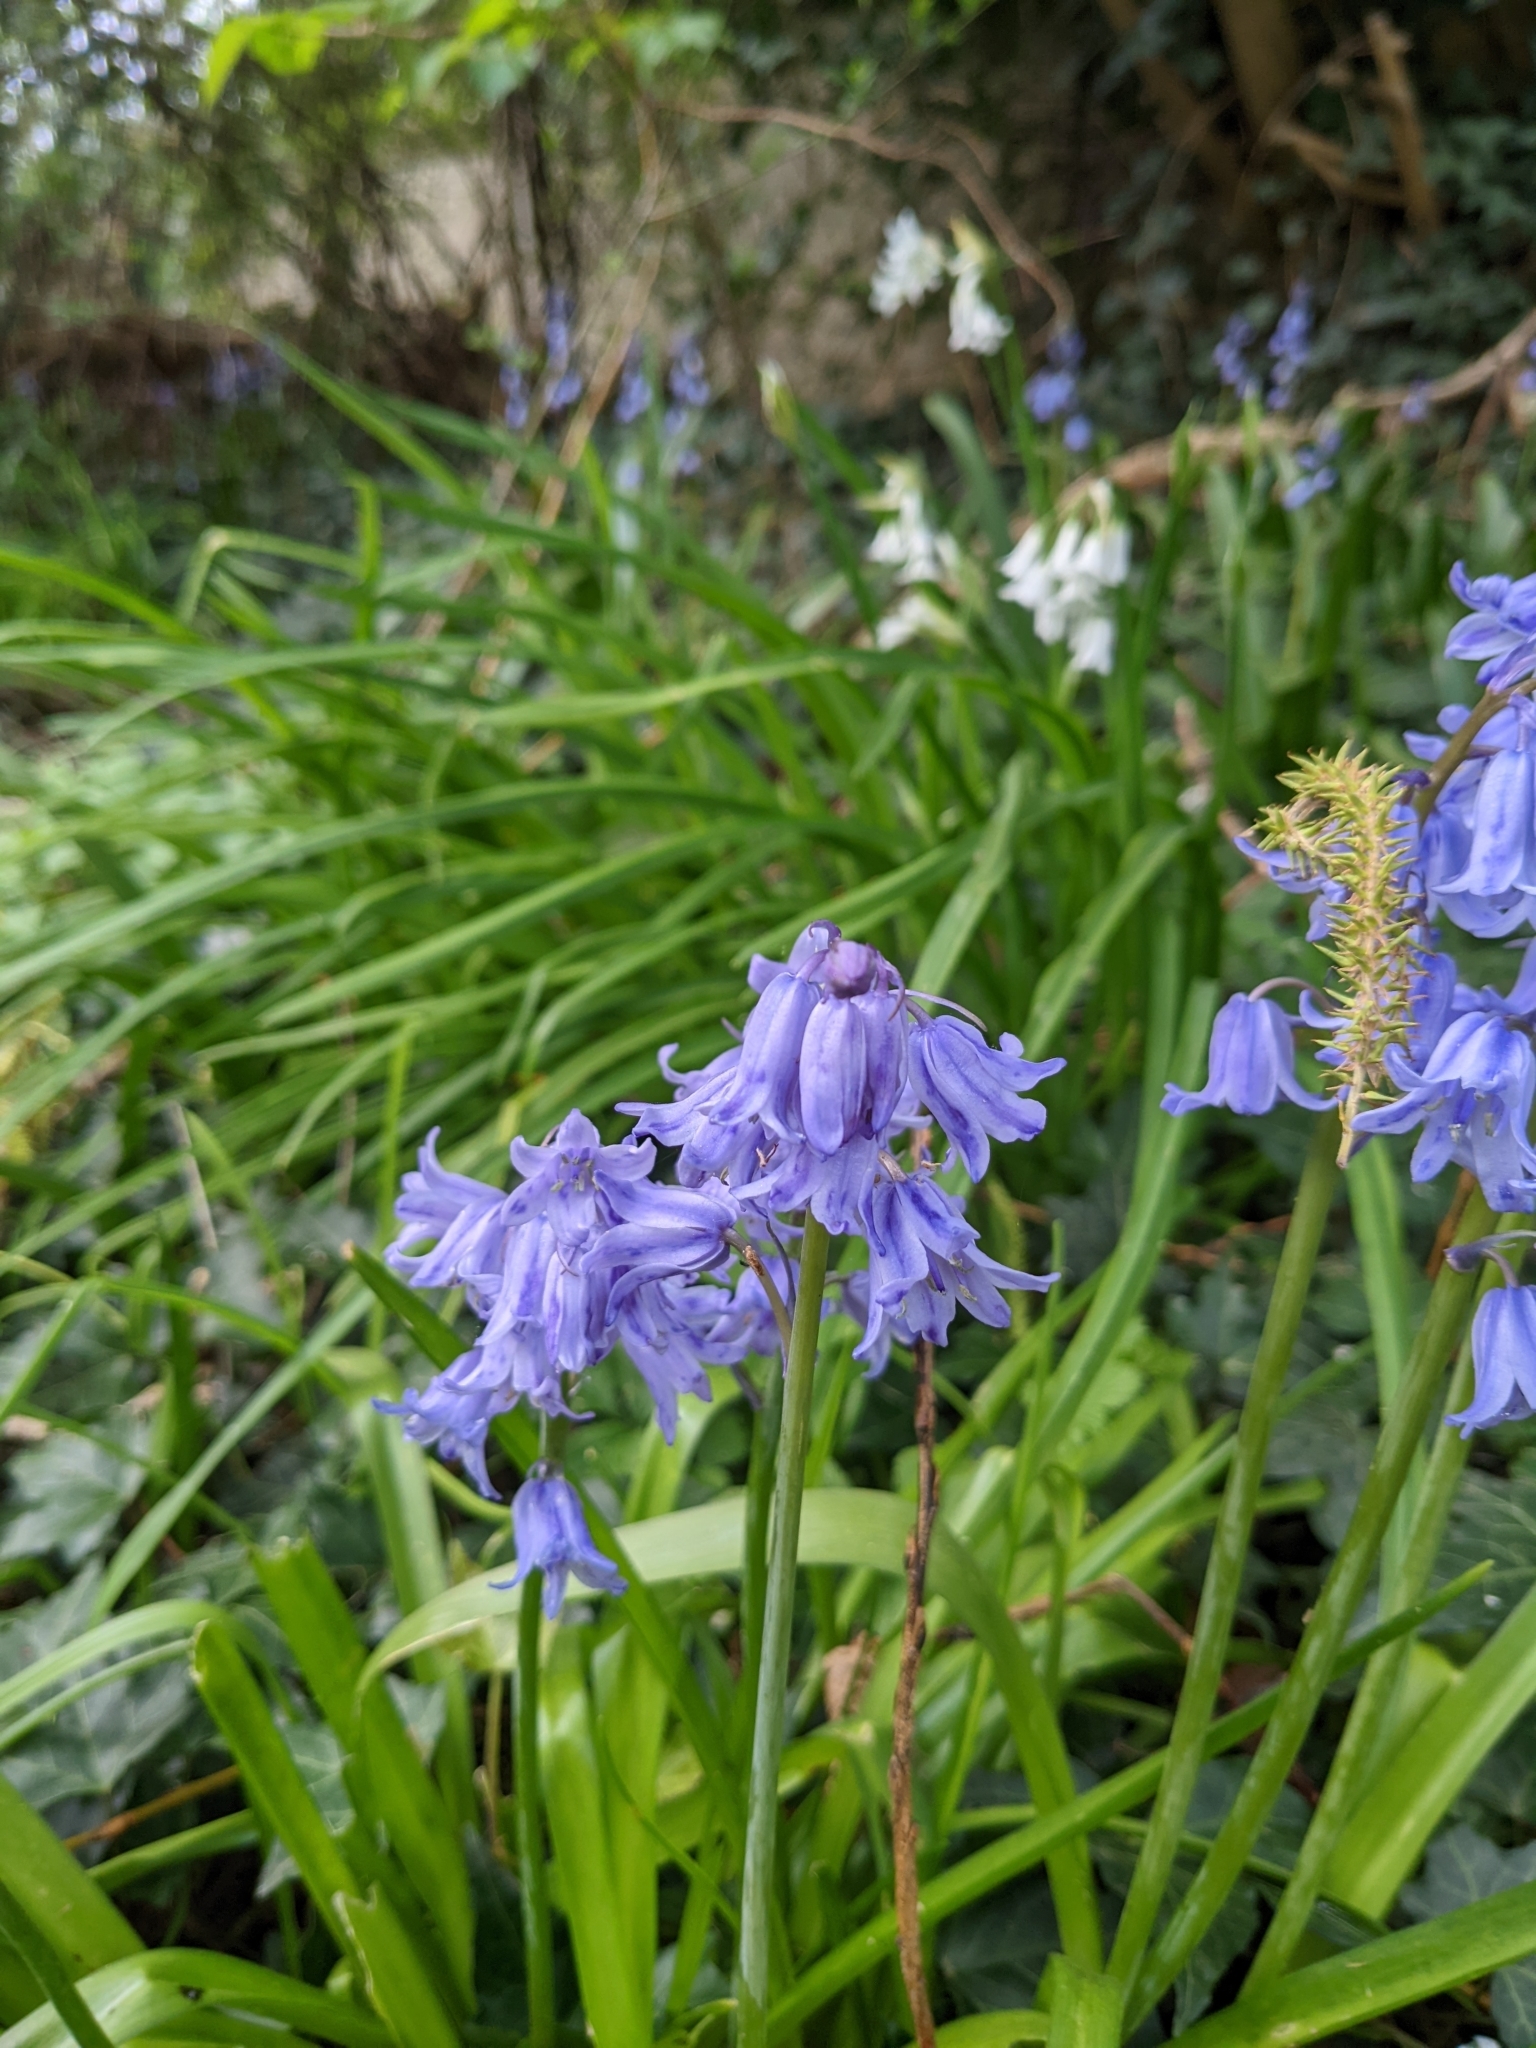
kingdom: Plantae
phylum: Tracheophyta
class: Liliopsida
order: Asparagales
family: Asparagaceae
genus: Hyacinthoides
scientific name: Hyacinthoides hispanica
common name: Spanish bluebell
